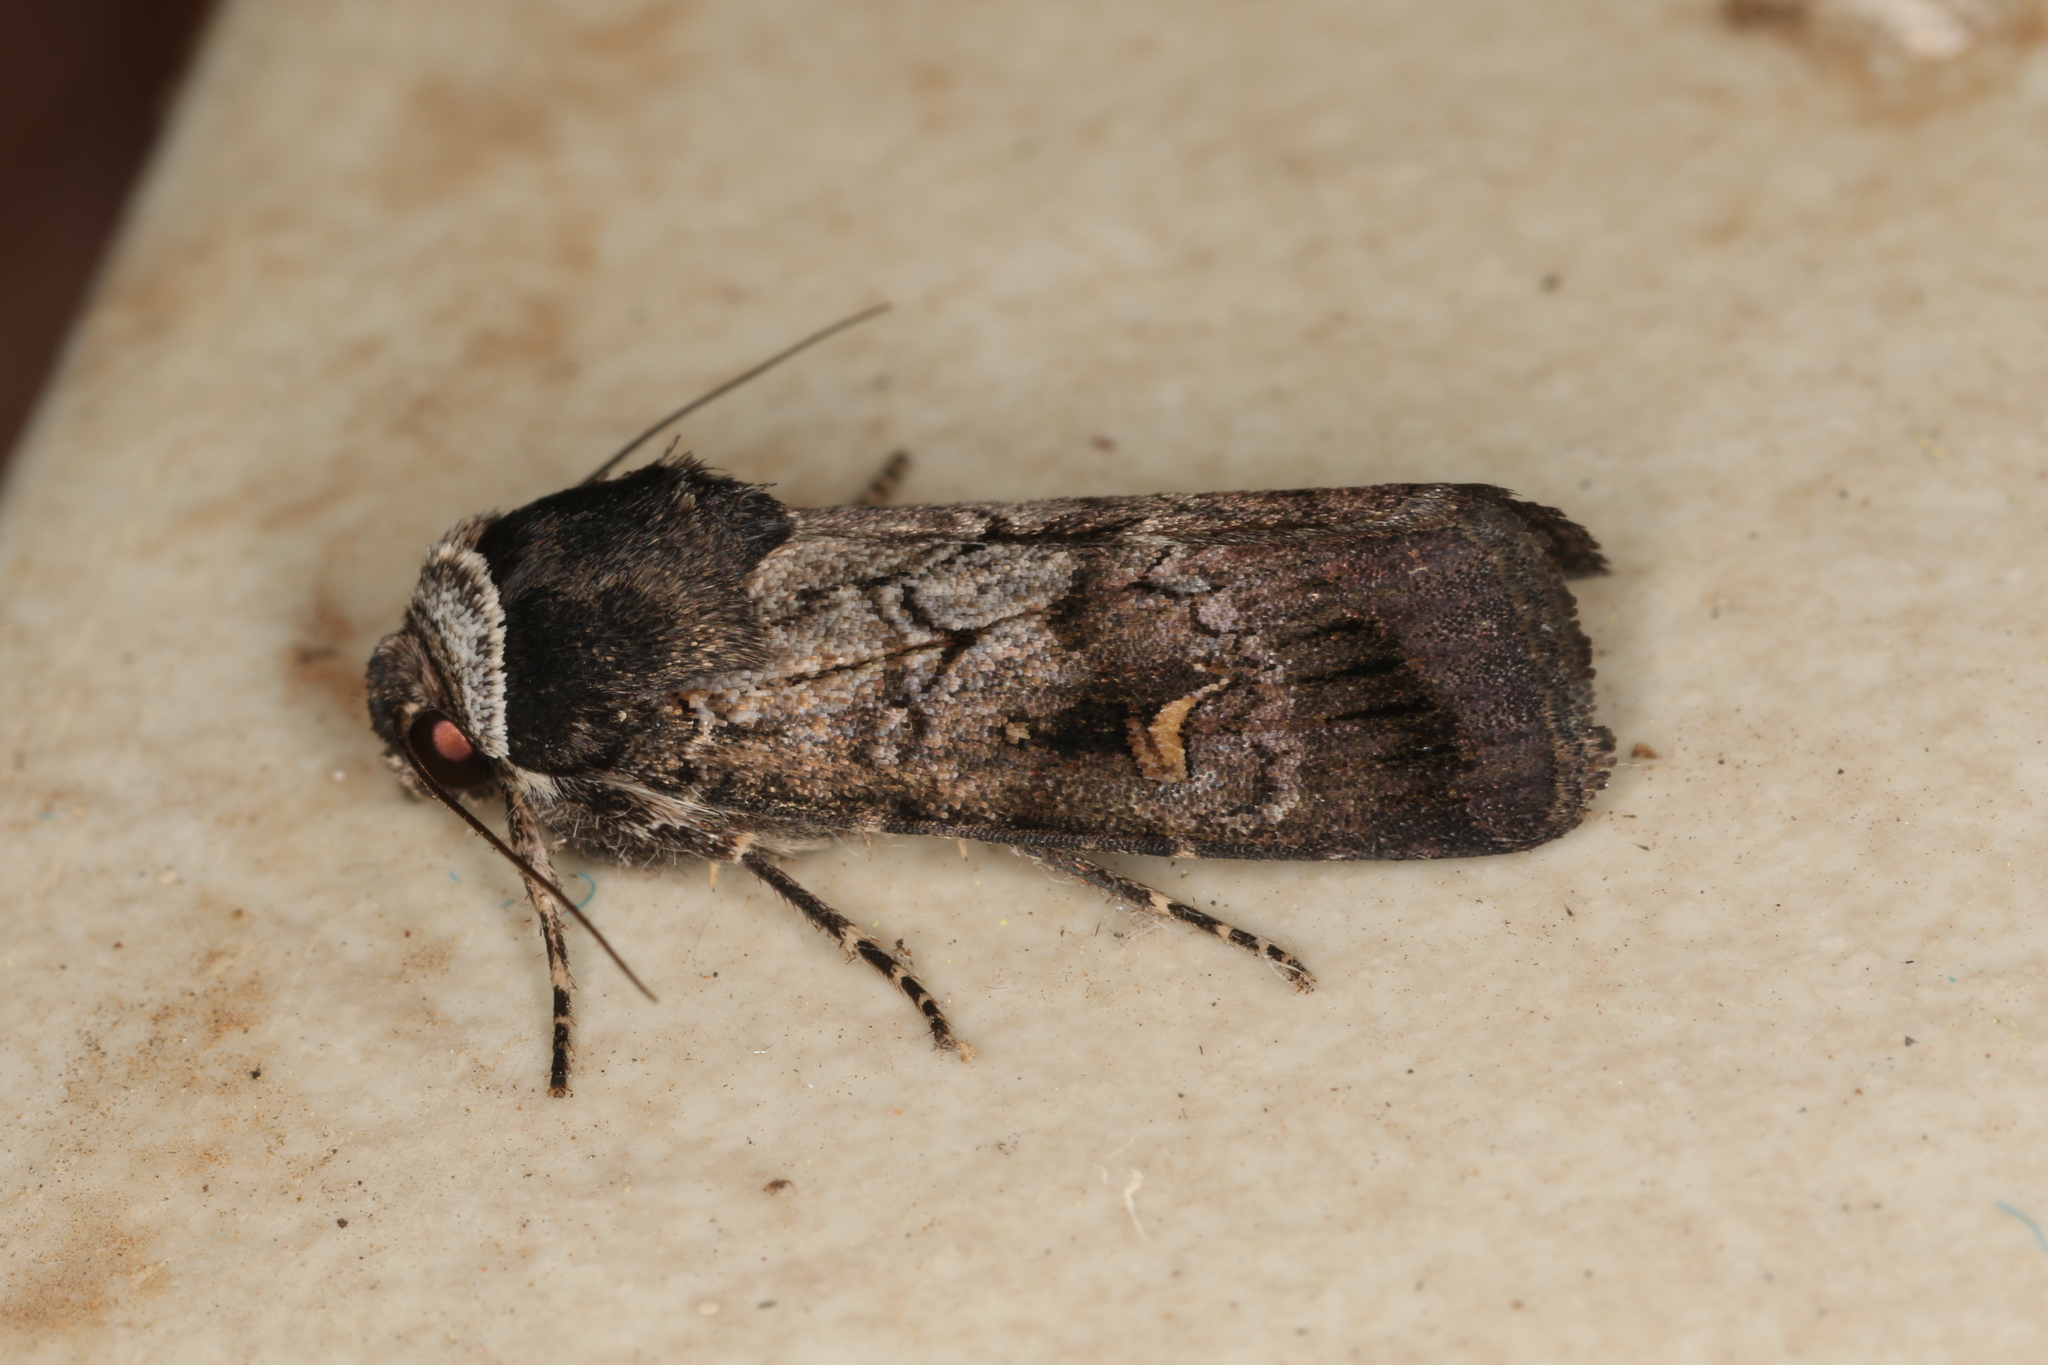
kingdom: Animalia
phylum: Arthropoda
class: Insecta
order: Lepidoptera
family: Noctuidae
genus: Proteuxoa
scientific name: Proteuxoa restituta
